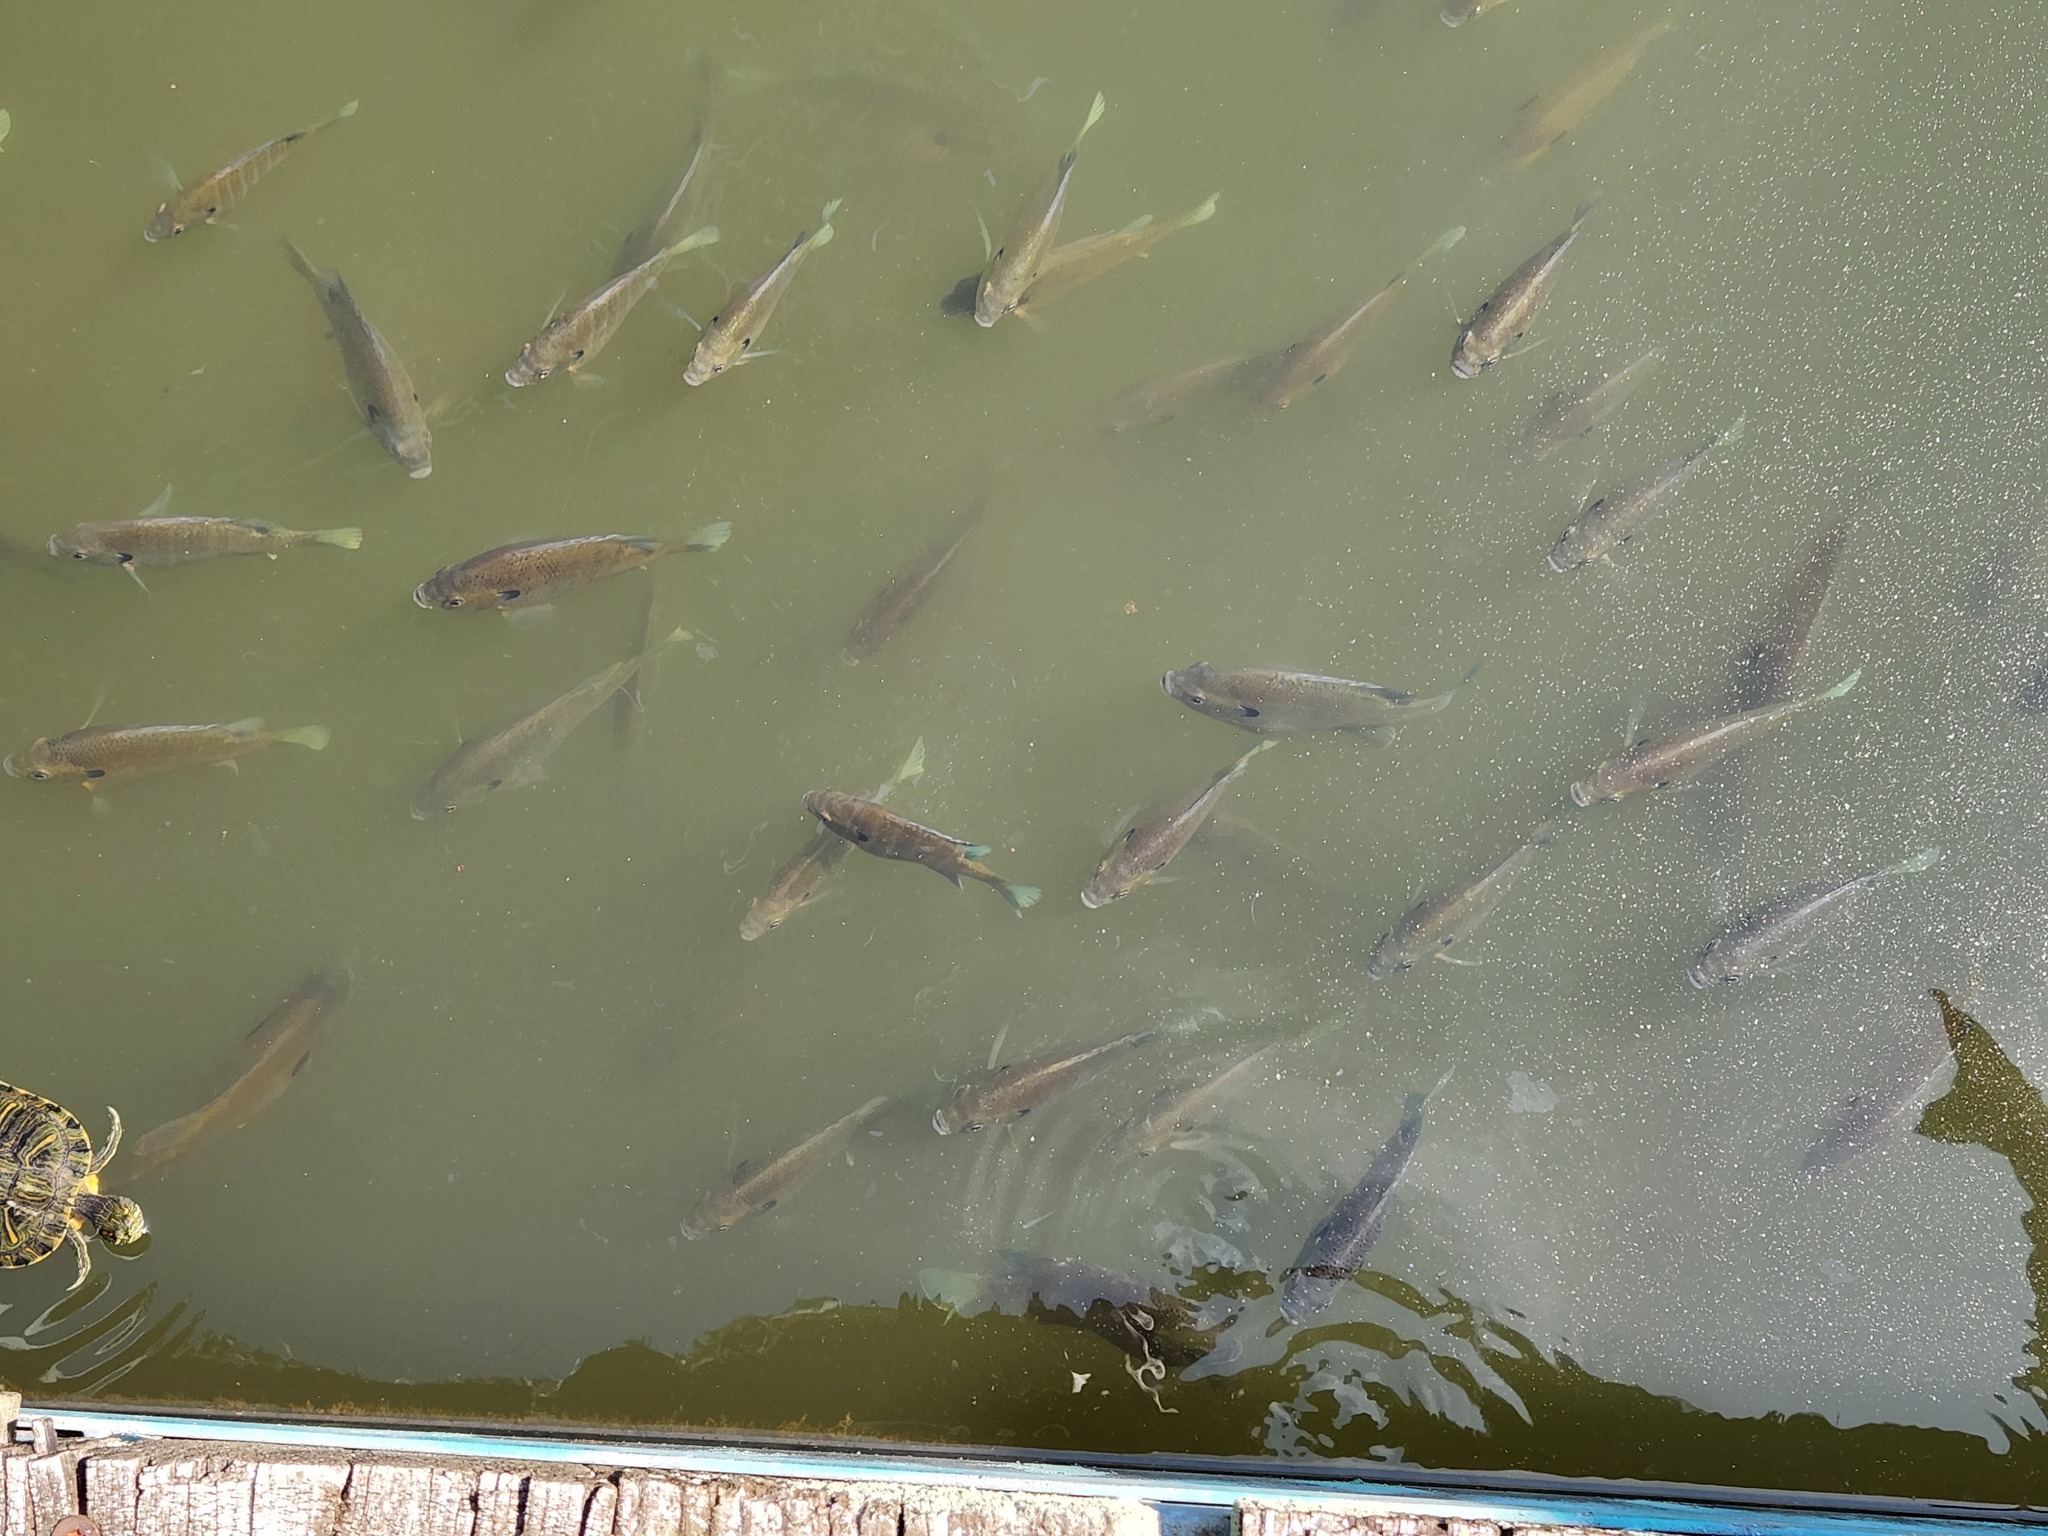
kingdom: Animalia
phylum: Chordata
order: Perciformes
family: Centrarchidae
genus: Lepomis
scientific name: Lepomis macrochirus
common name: Bluegill
